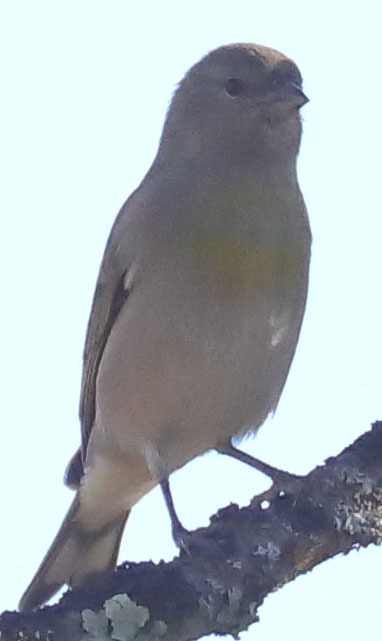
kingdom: Animalia
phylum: Chordata
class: Aves
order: Passeriformes
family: Fringillidae
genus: Spinus
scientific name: Spinus lawrencei
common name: Lawrence's goldfinch
